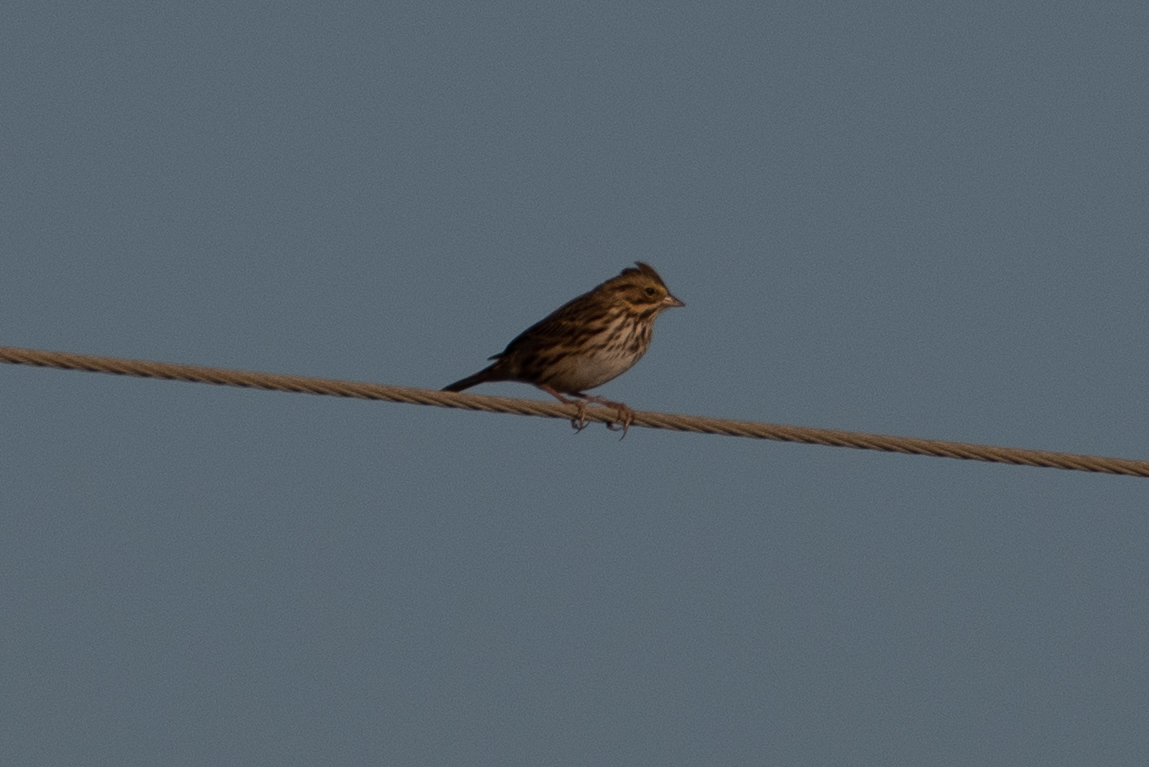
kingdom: Animalia
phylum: Chordata
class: Aves
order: Passeriformes
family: Passerellidae
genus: Passerculus
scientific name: Passerculus sandwichensis
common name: Savannah sparrow
